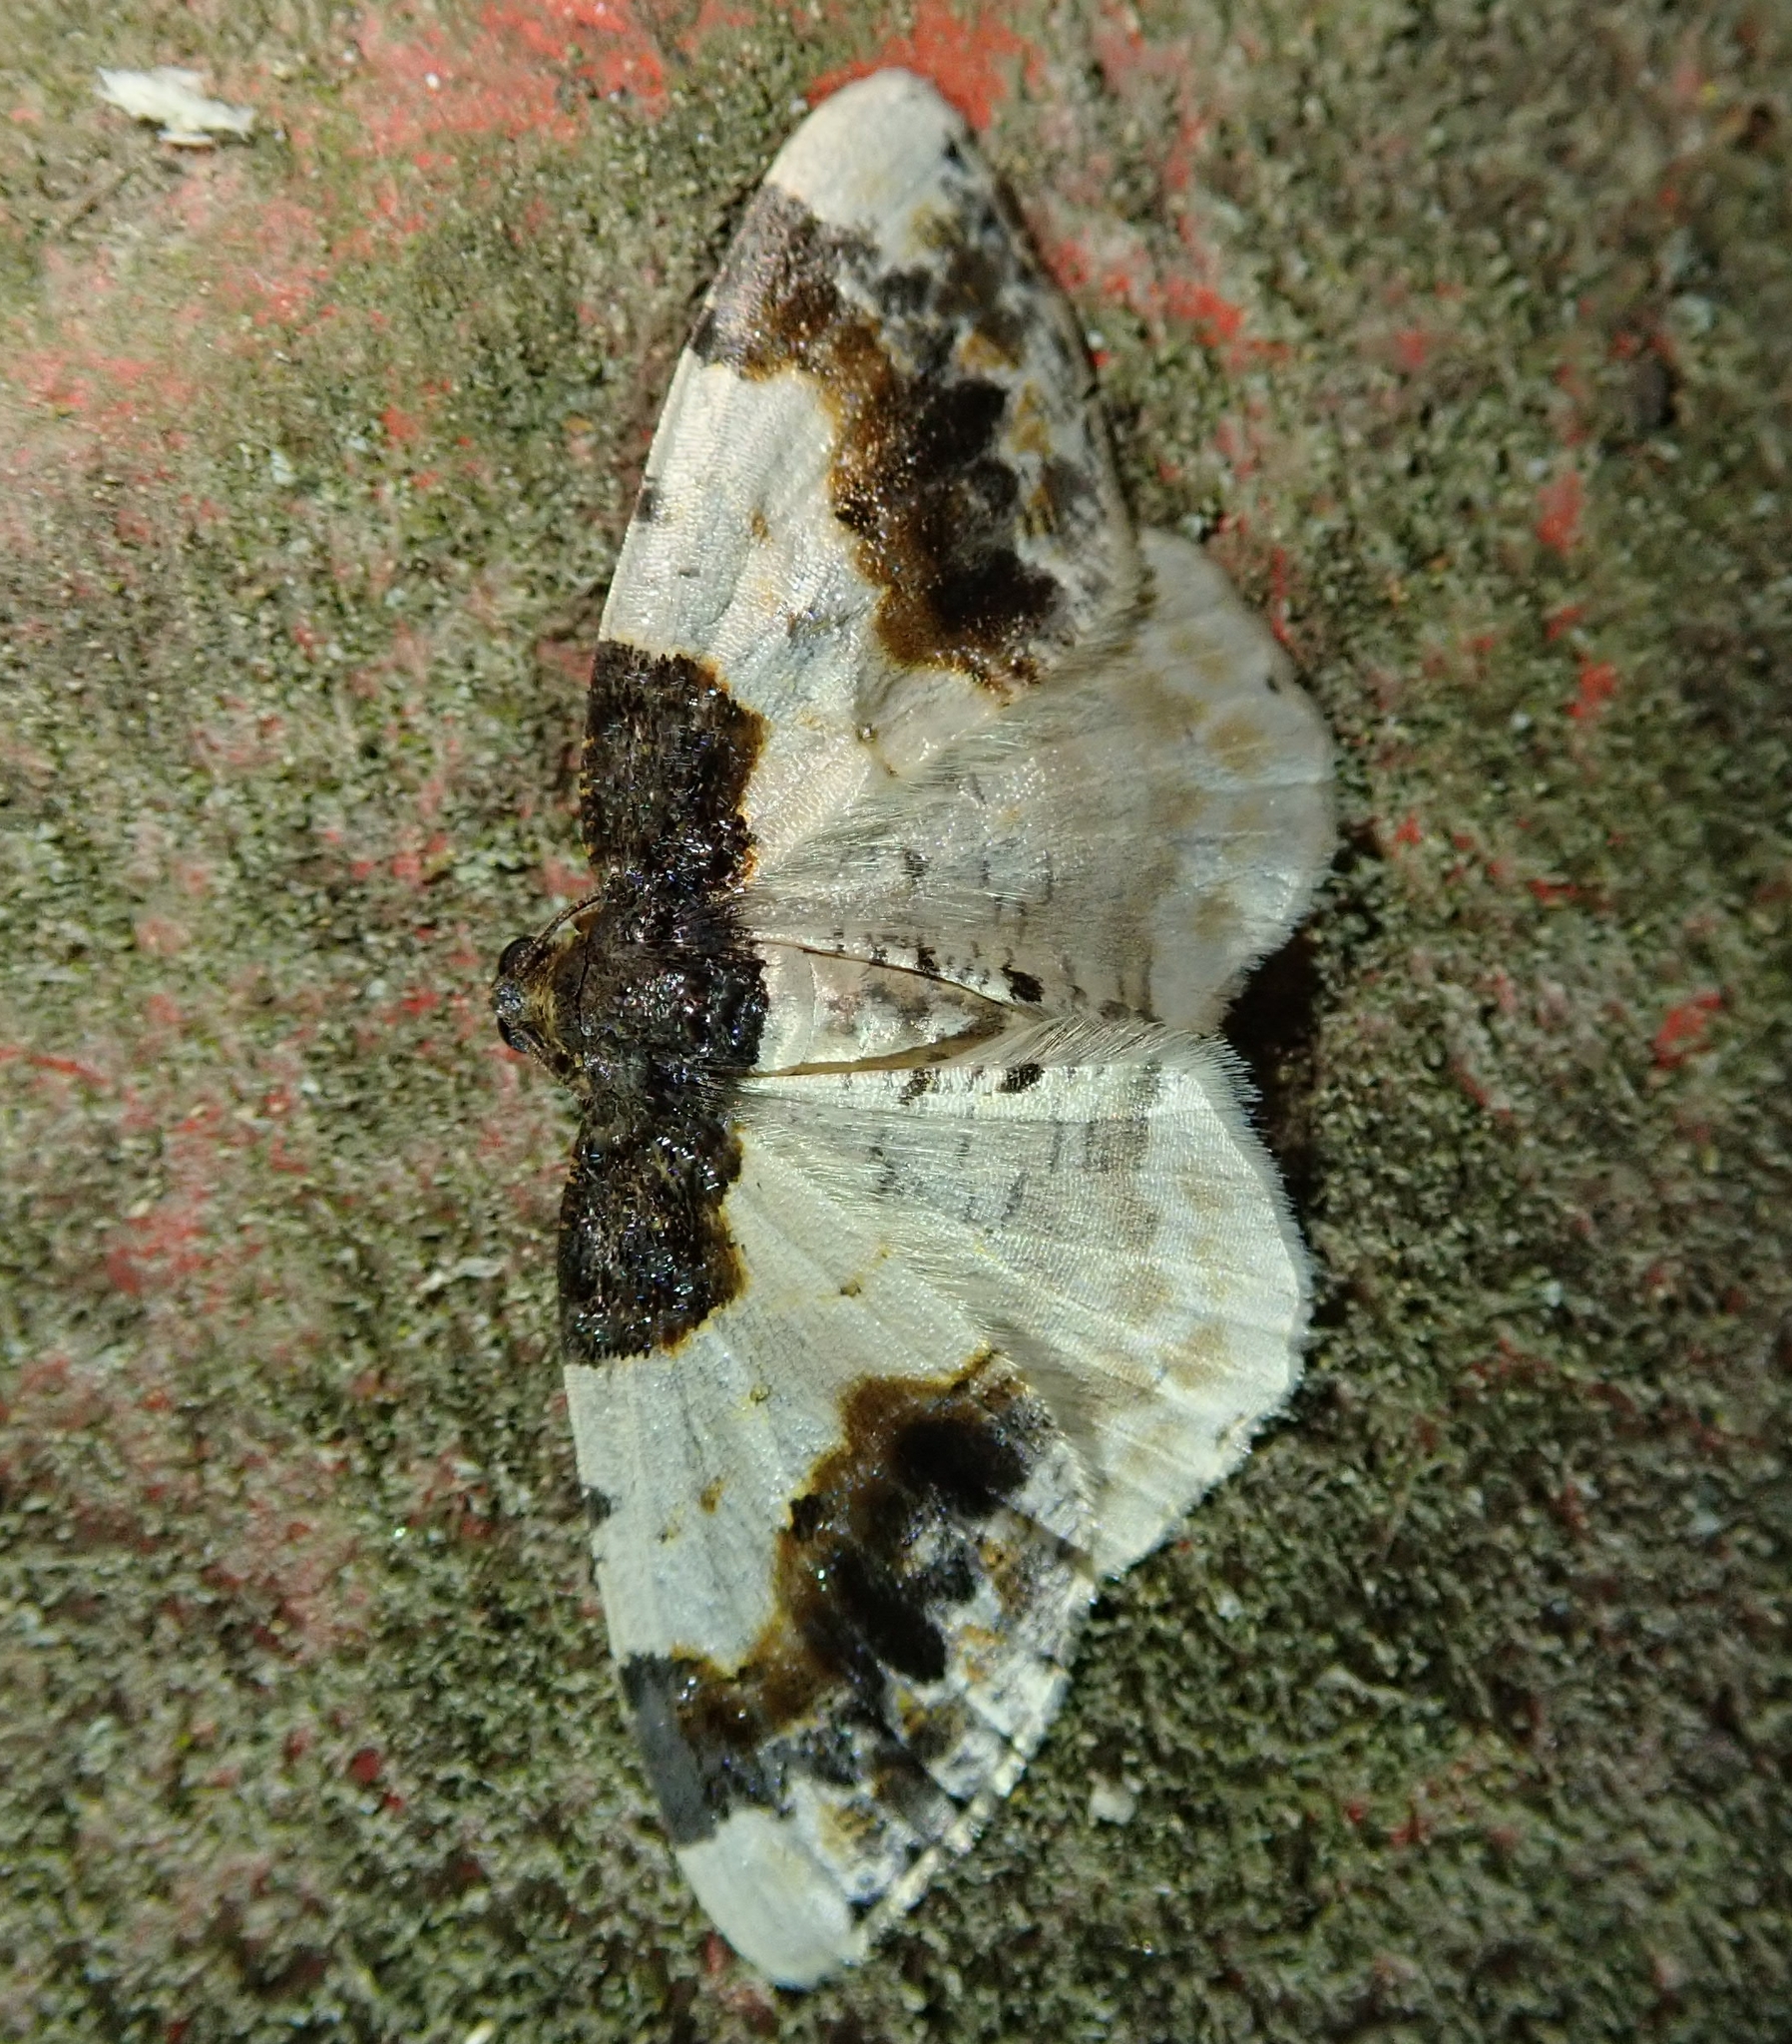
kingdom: Animalia
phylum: Arthropoda
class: Insecta
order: Lepidoptera
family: Geometridae
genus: Ligdia
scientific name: Ligdia adustata
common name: Scorched carpet
